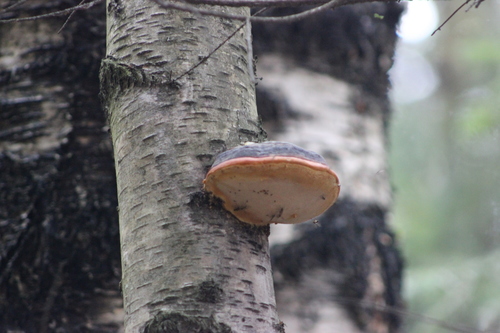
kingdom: Fungi
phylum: Basidiomycota
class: Agaricomycetes
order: Polyporales
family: Fomitopsidaceae
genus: Fomitopsis
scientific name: Fomitopsis pinicola
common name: Red-belted bracket
